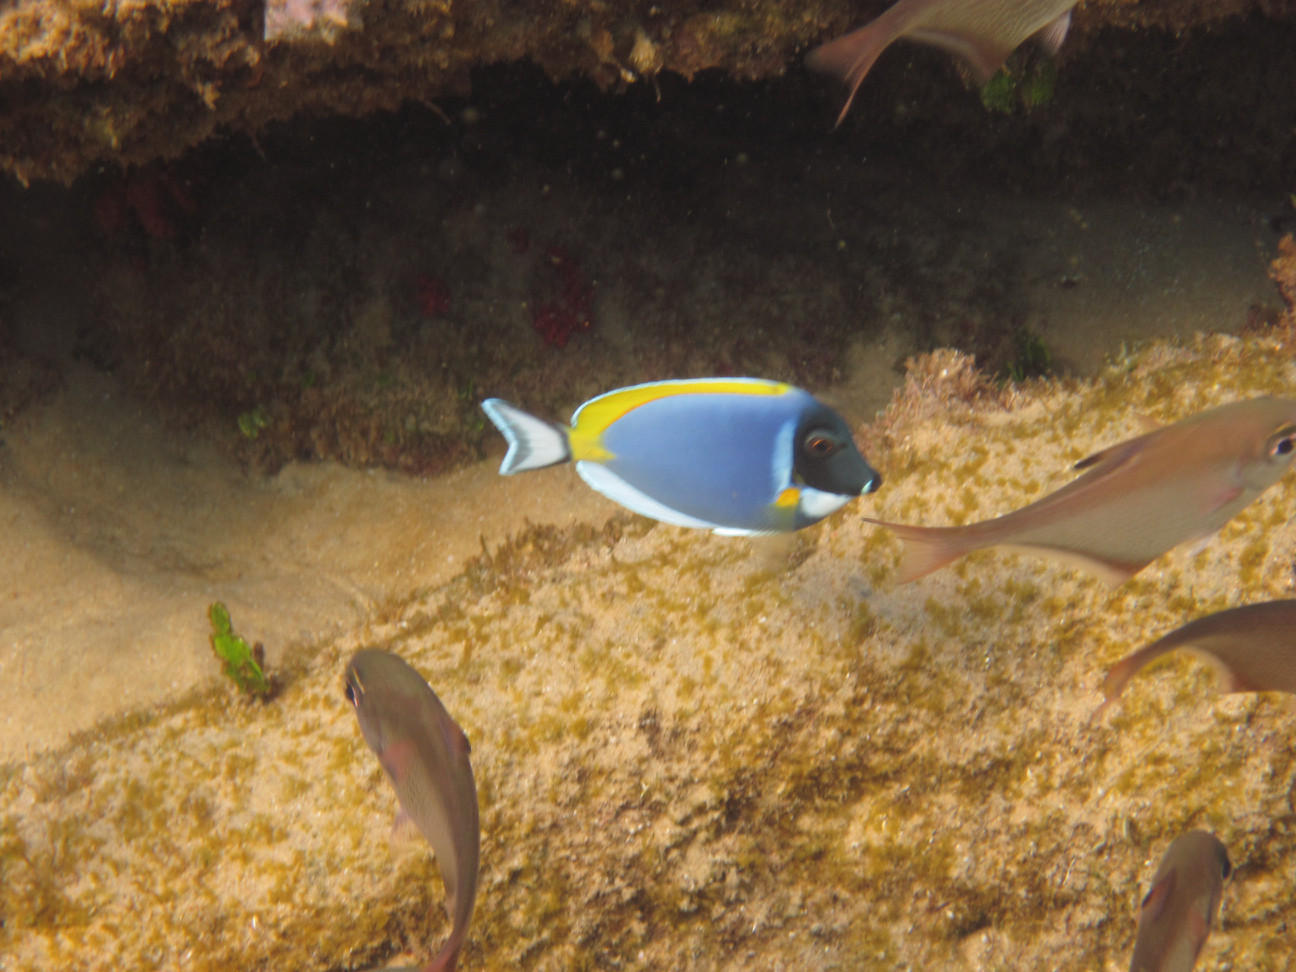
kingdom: Animalia
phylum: Chordata
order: Perciformes
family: Acanthuridae
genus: Acanthurus
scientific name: Acanthurus leucosternon
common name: Blue surgeonfish
